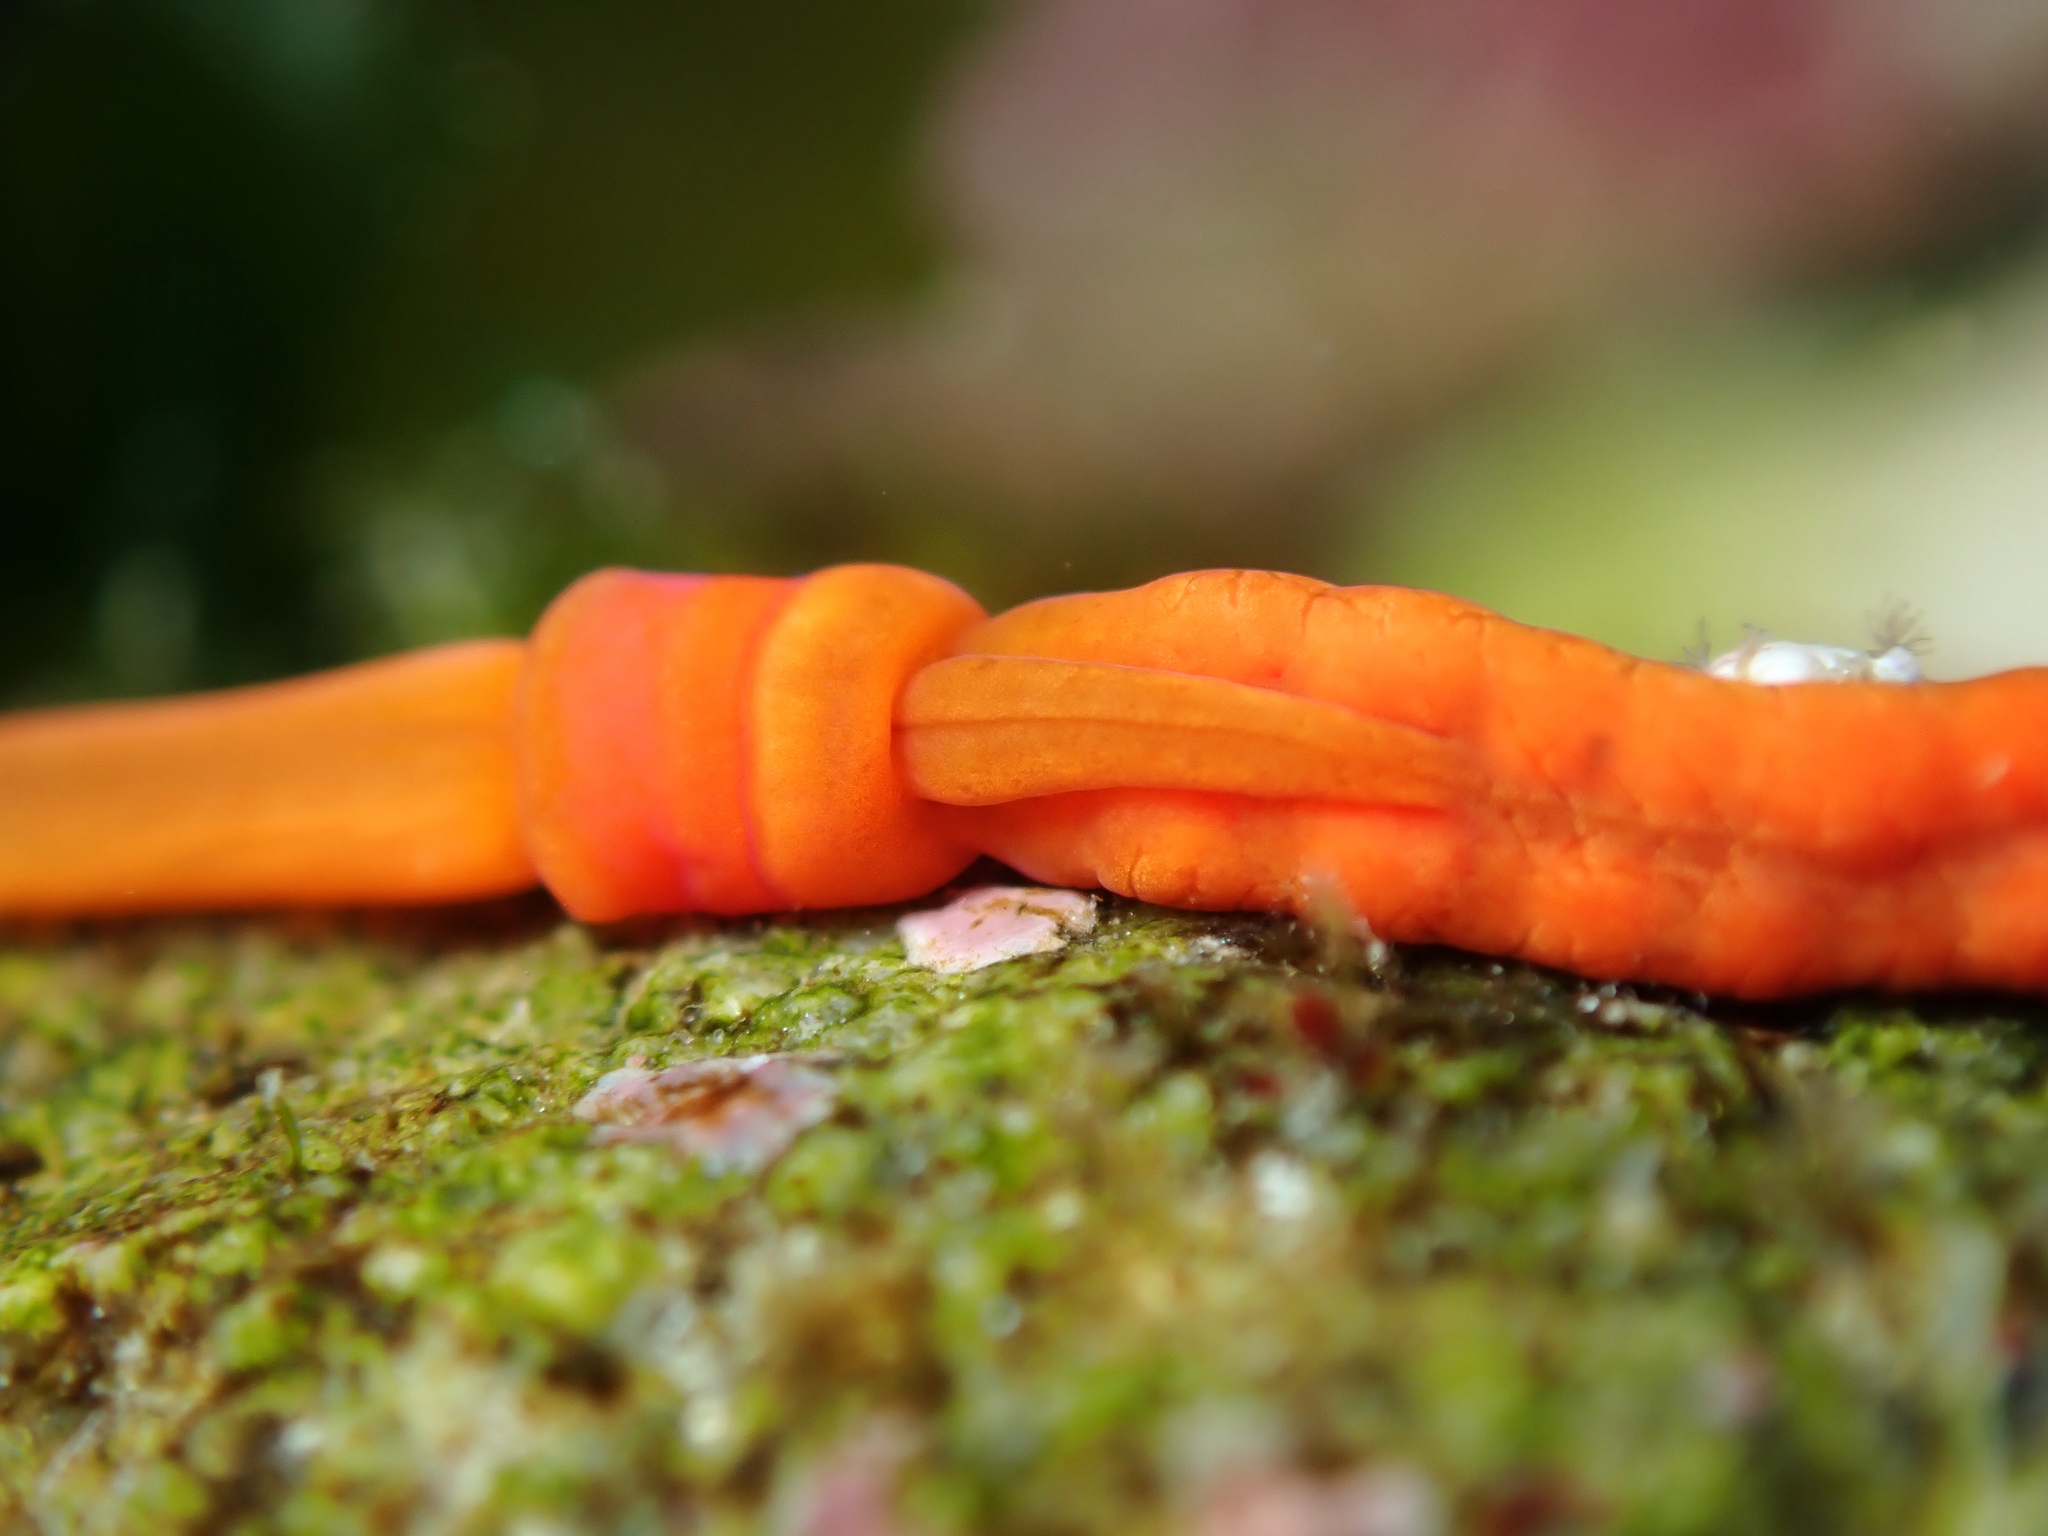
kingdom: Animalia
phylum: Hemichordata
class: Enteropneusta
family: Harrimaniidae
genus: Saccoglossus
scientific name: Saccoglossus otagoensis
